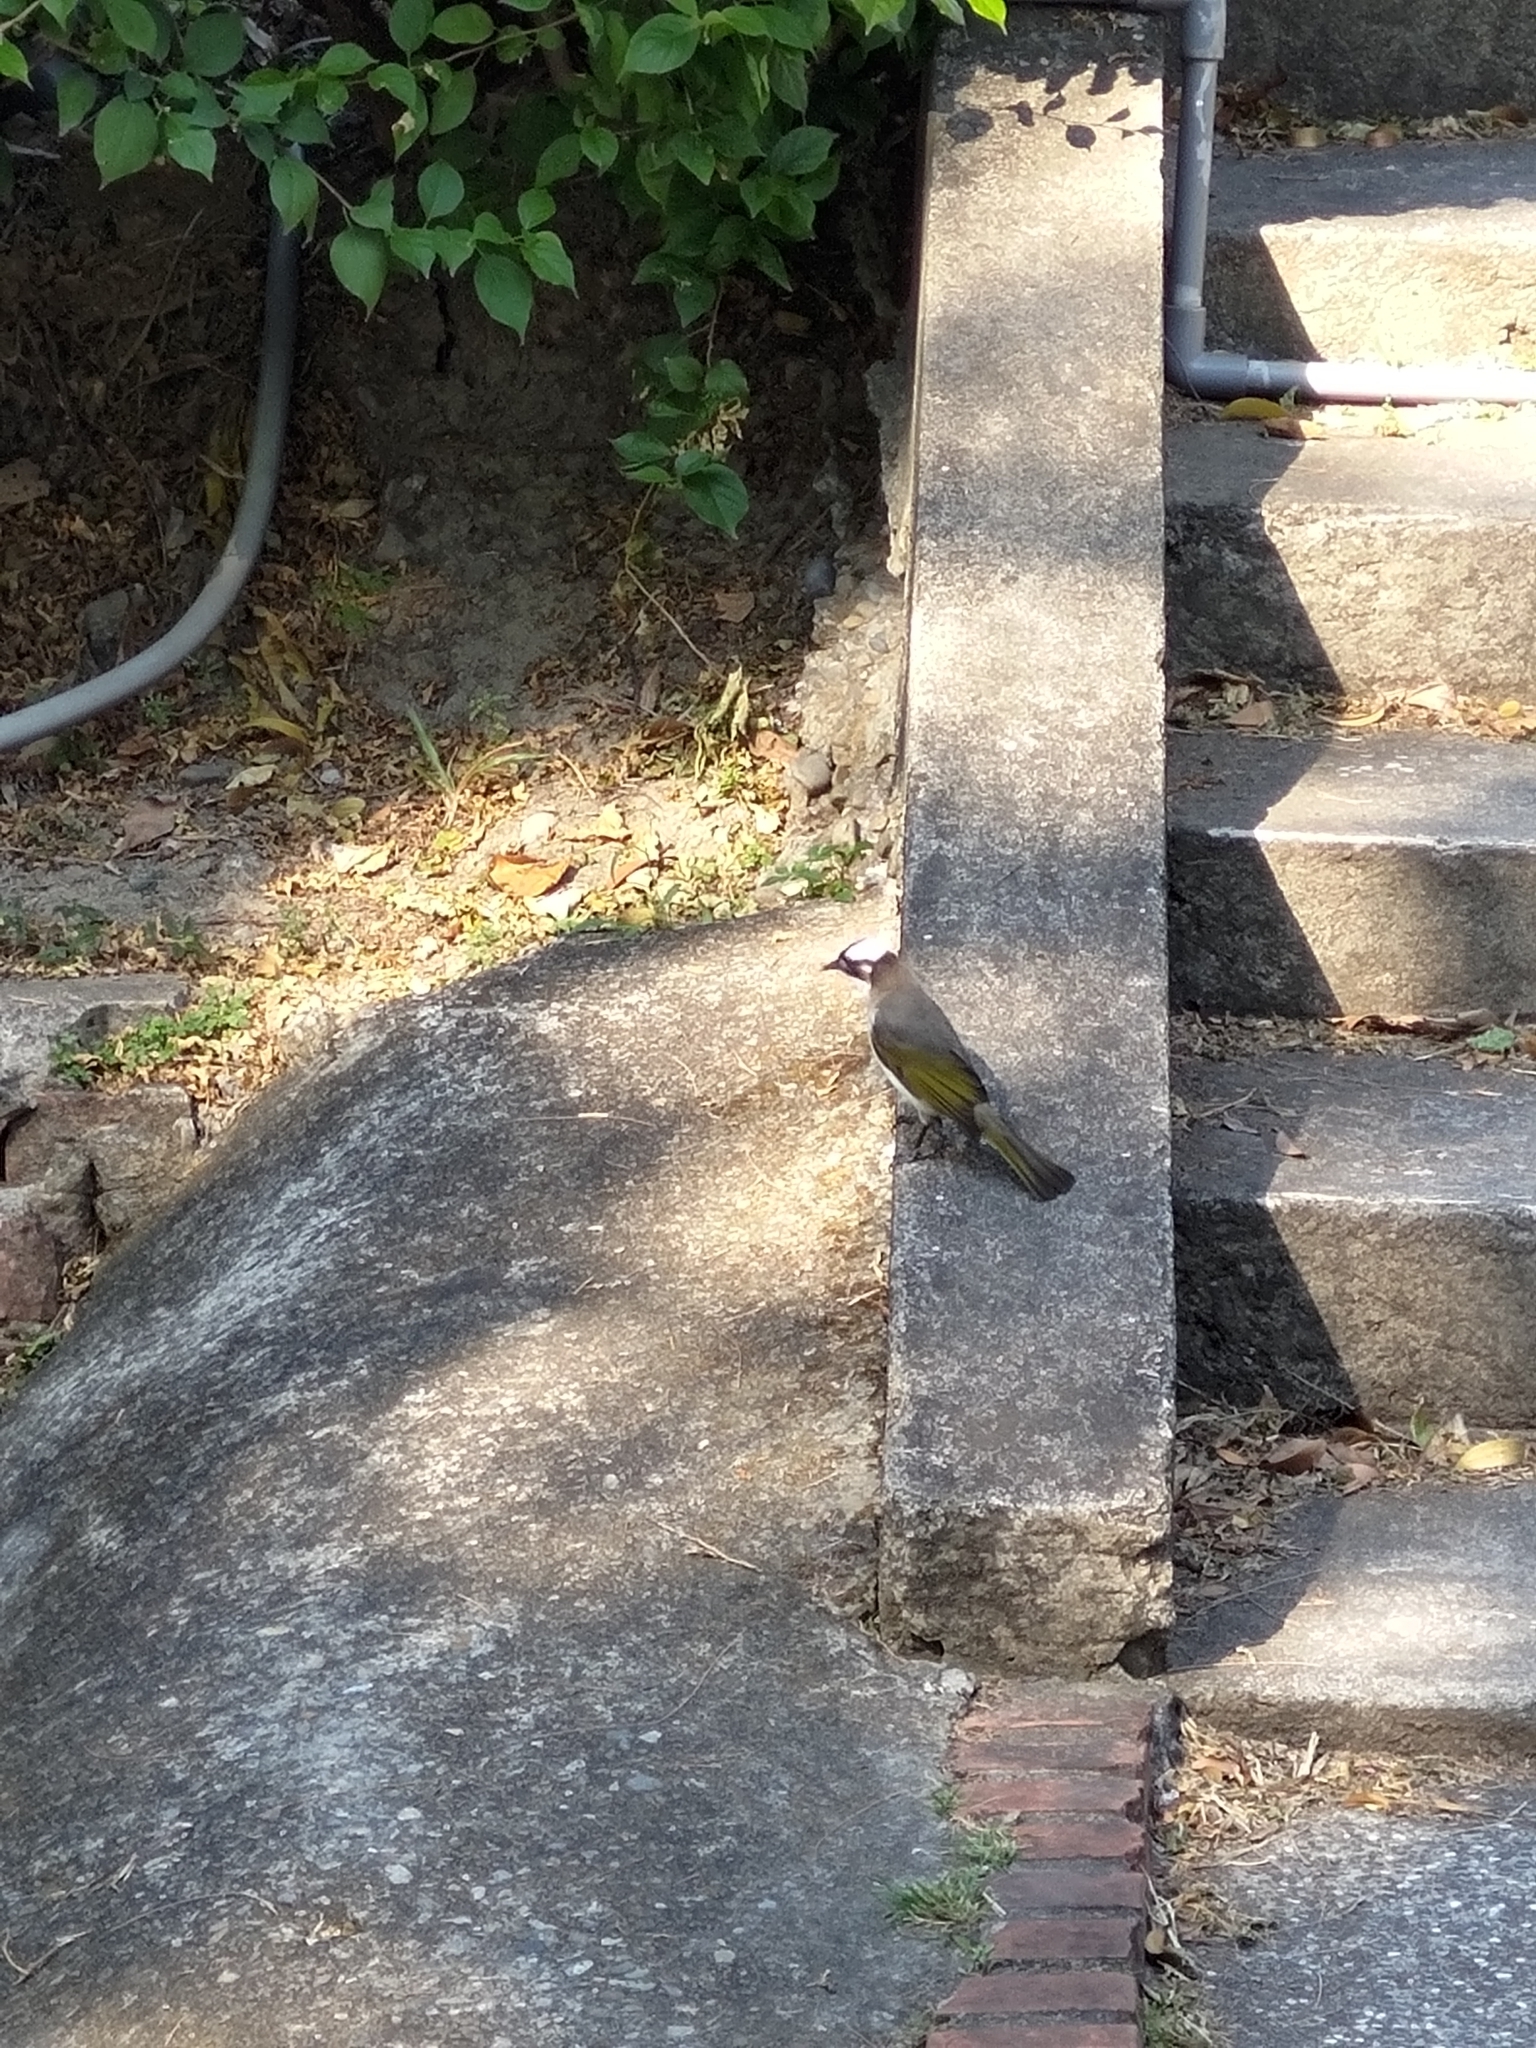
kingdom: Animalia
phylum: Chordata
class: Aves
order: Passeriformes
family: Pycnonotidae
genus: Pycnonotus
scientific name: Pycnonotus sinensis
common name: Light-vented bulbul
